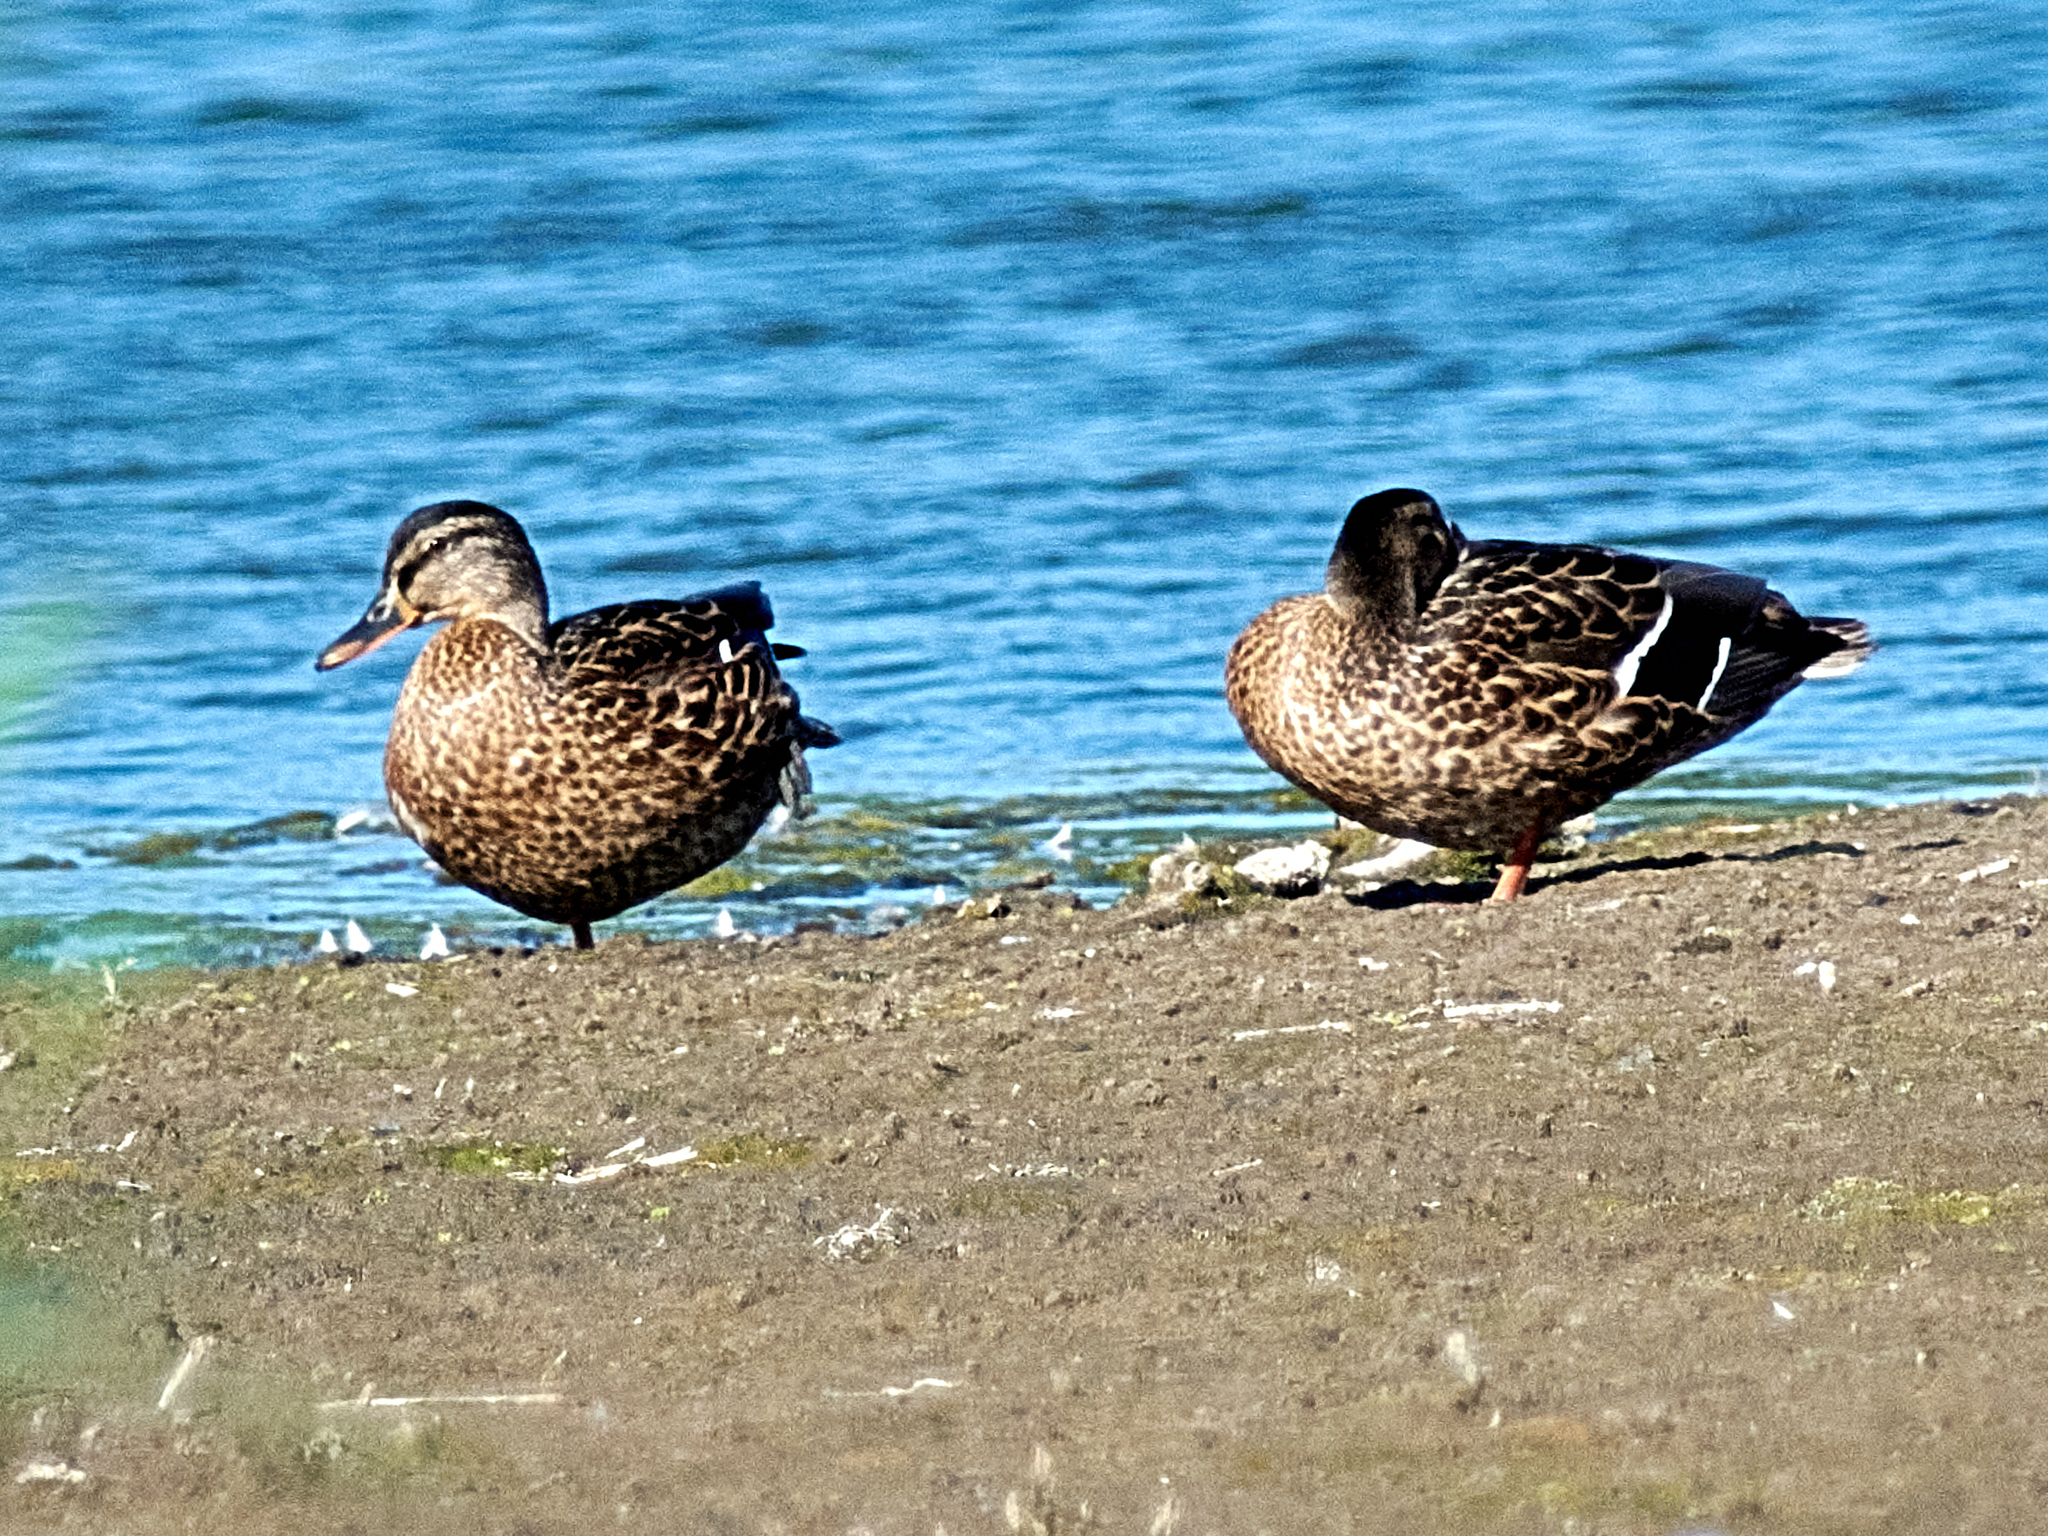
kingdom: Animalia
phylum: Chordata
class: Aves
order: Anseriformes
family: Anatidae
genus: Anas
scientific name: Anas platyrhynchos
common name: Mallard
